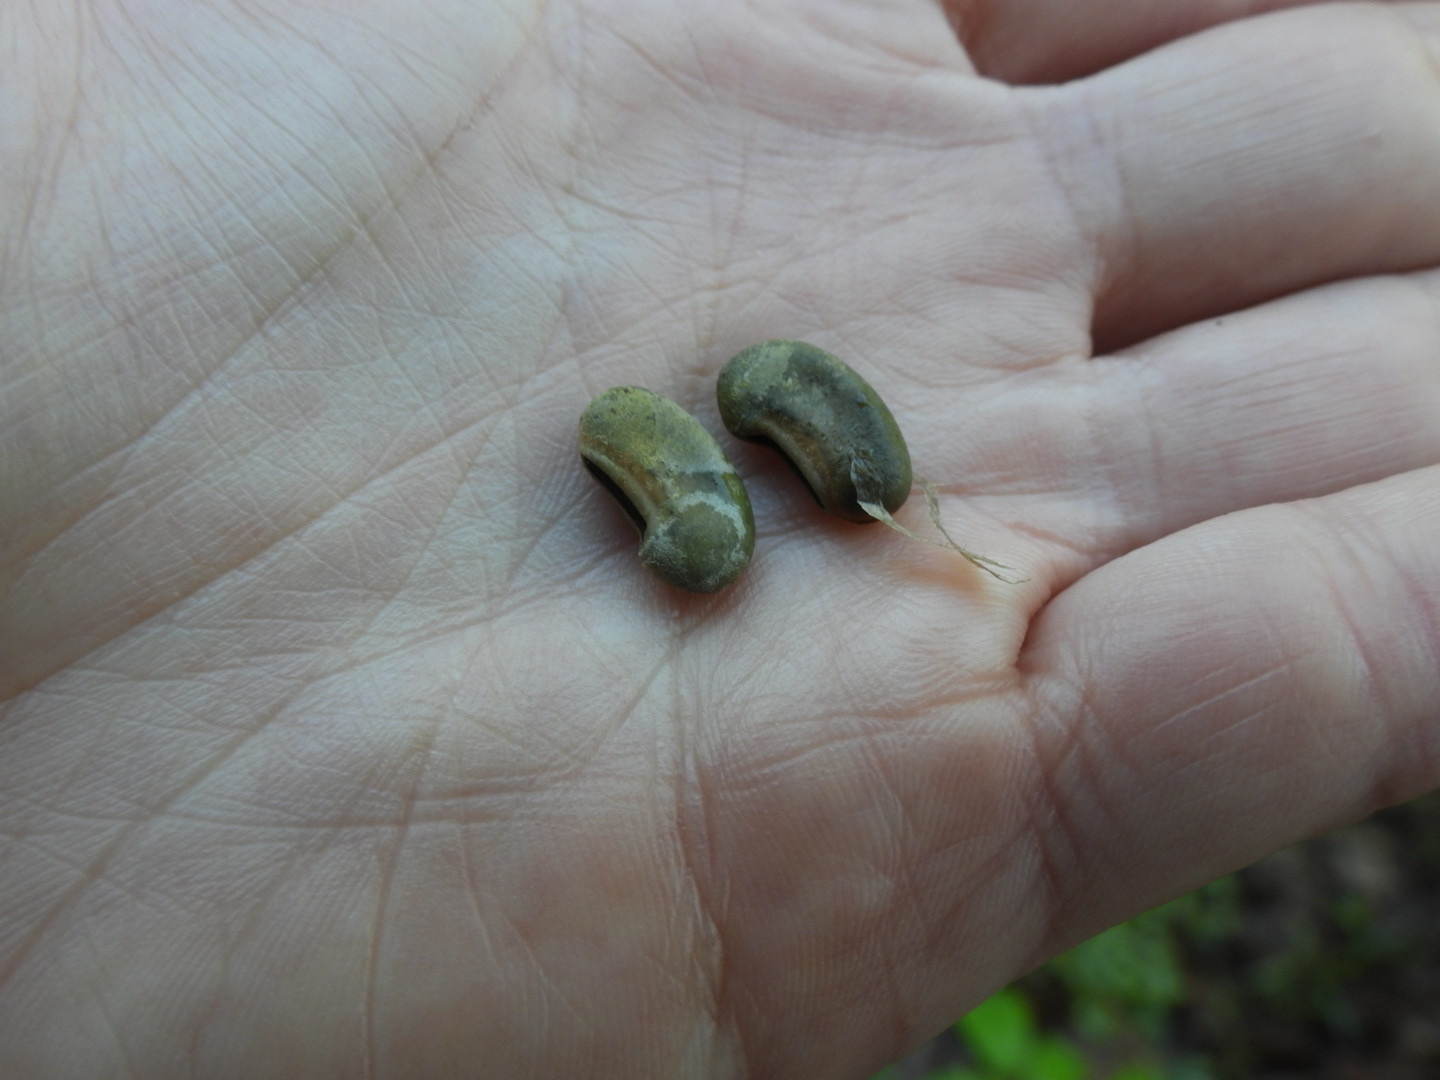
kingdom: Plantae
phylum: Tracheophyta
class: Magnoliopsida
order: Fabales
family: Fabaceae
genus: Sesbania
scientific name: Sesbania vesicaria
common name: Bagpod
